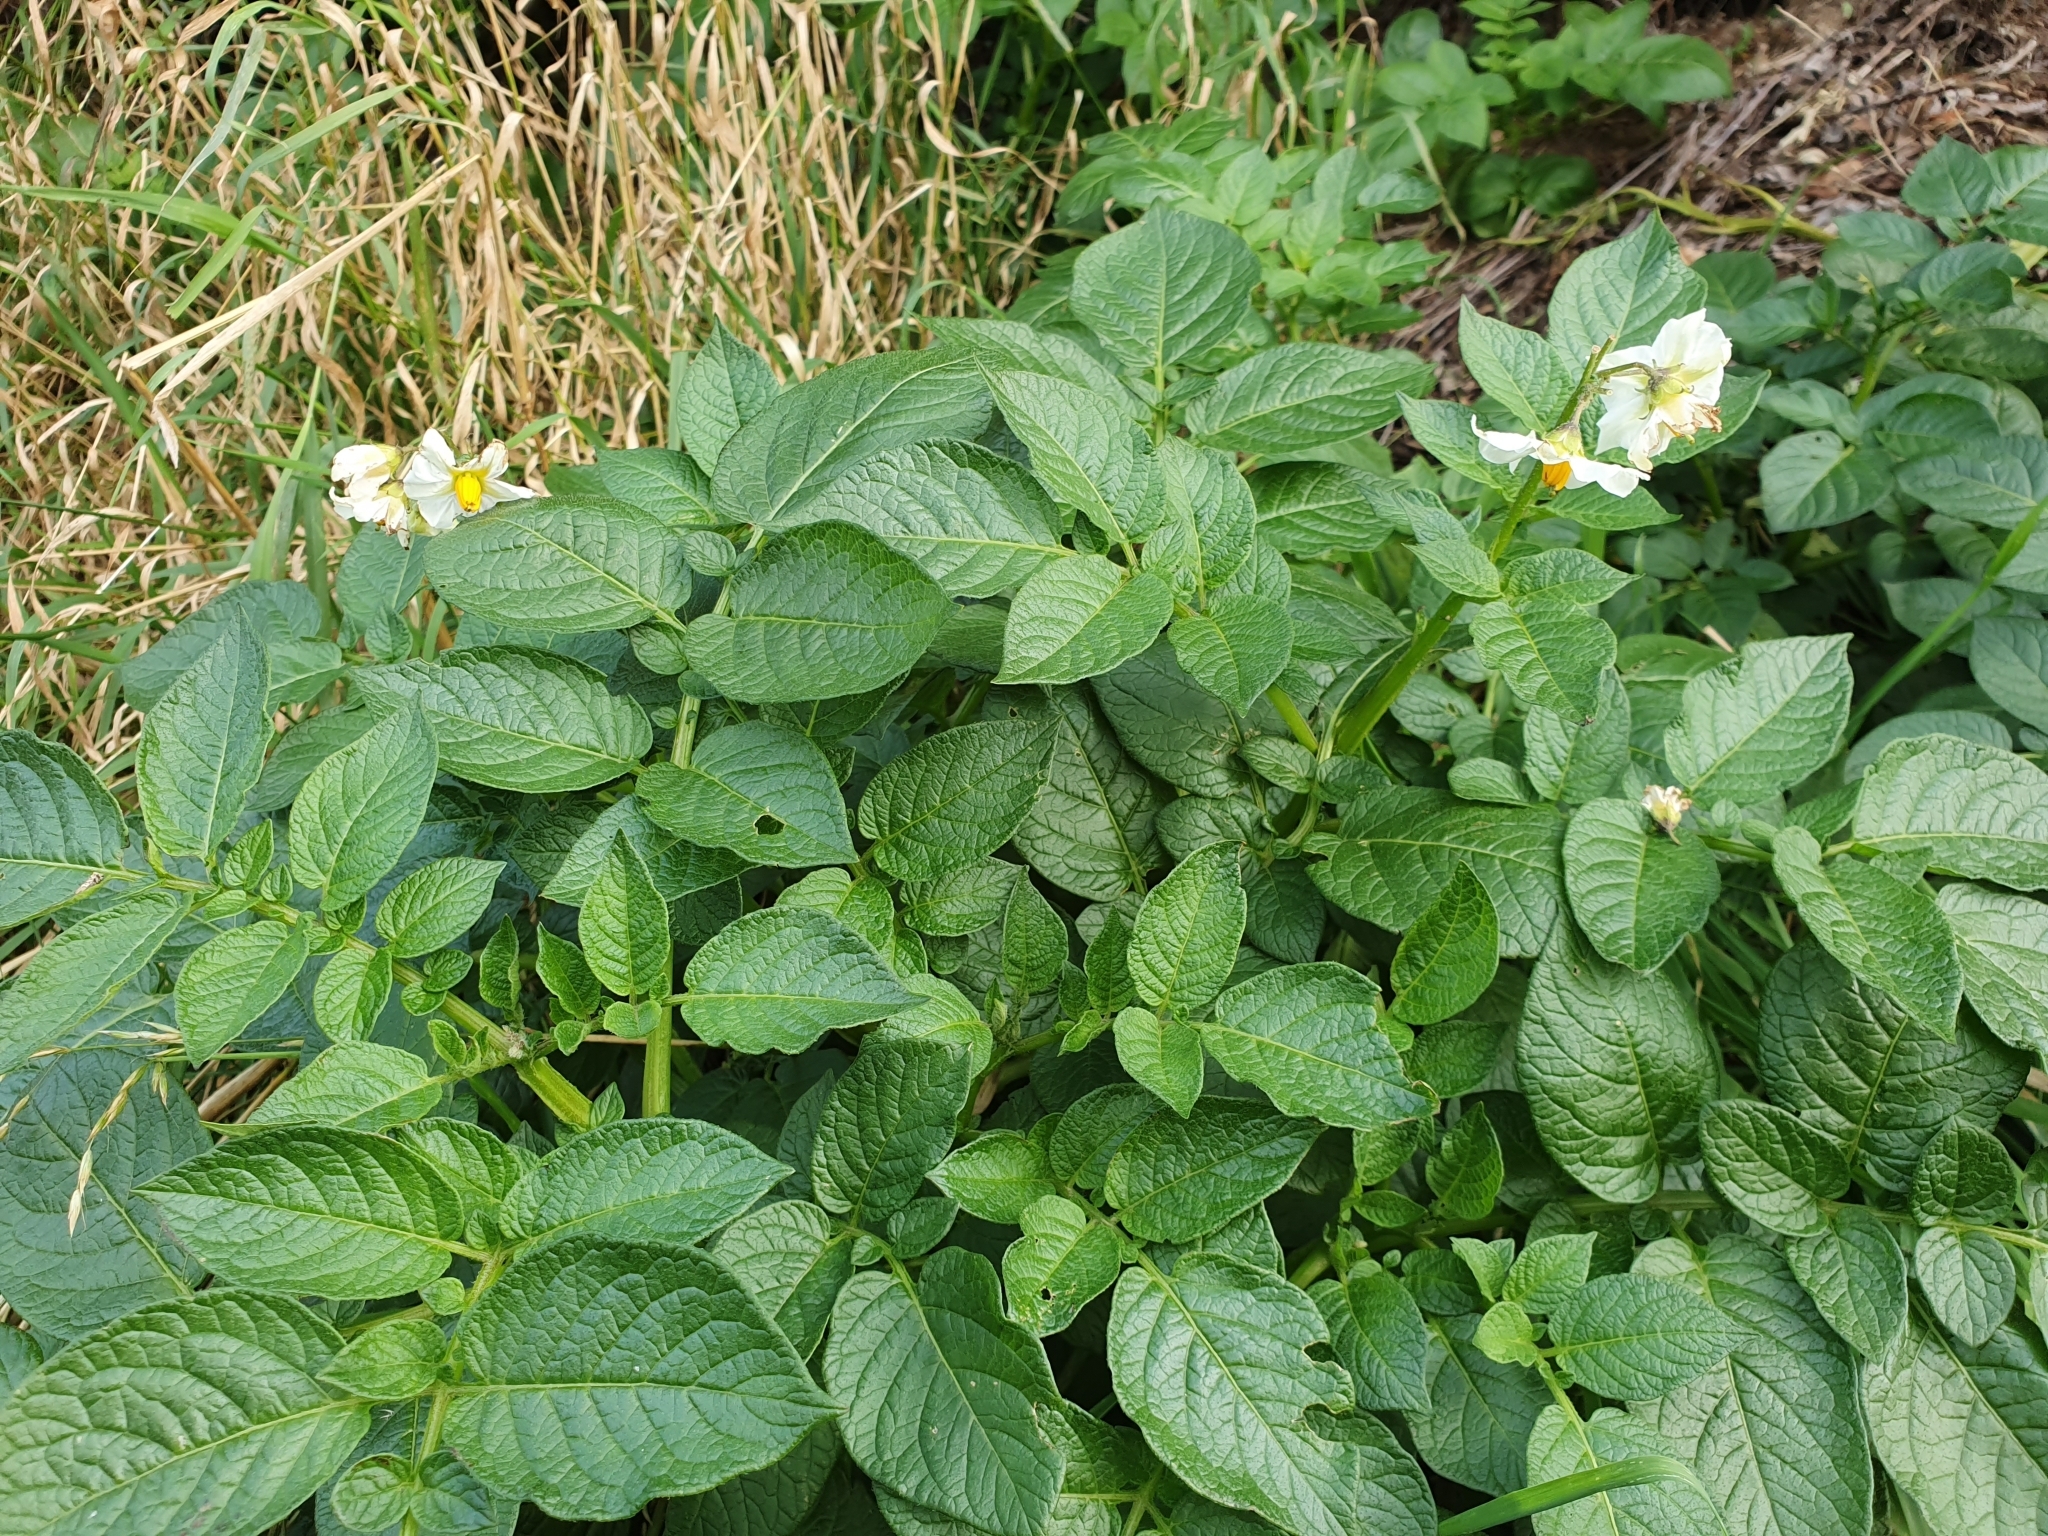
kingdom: Plantae
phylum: Tracheophyta
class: Magnoliopsida
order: Solanales
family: Solanaceae
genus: Solanum
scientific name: Solanum tuberosum
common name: Potato
